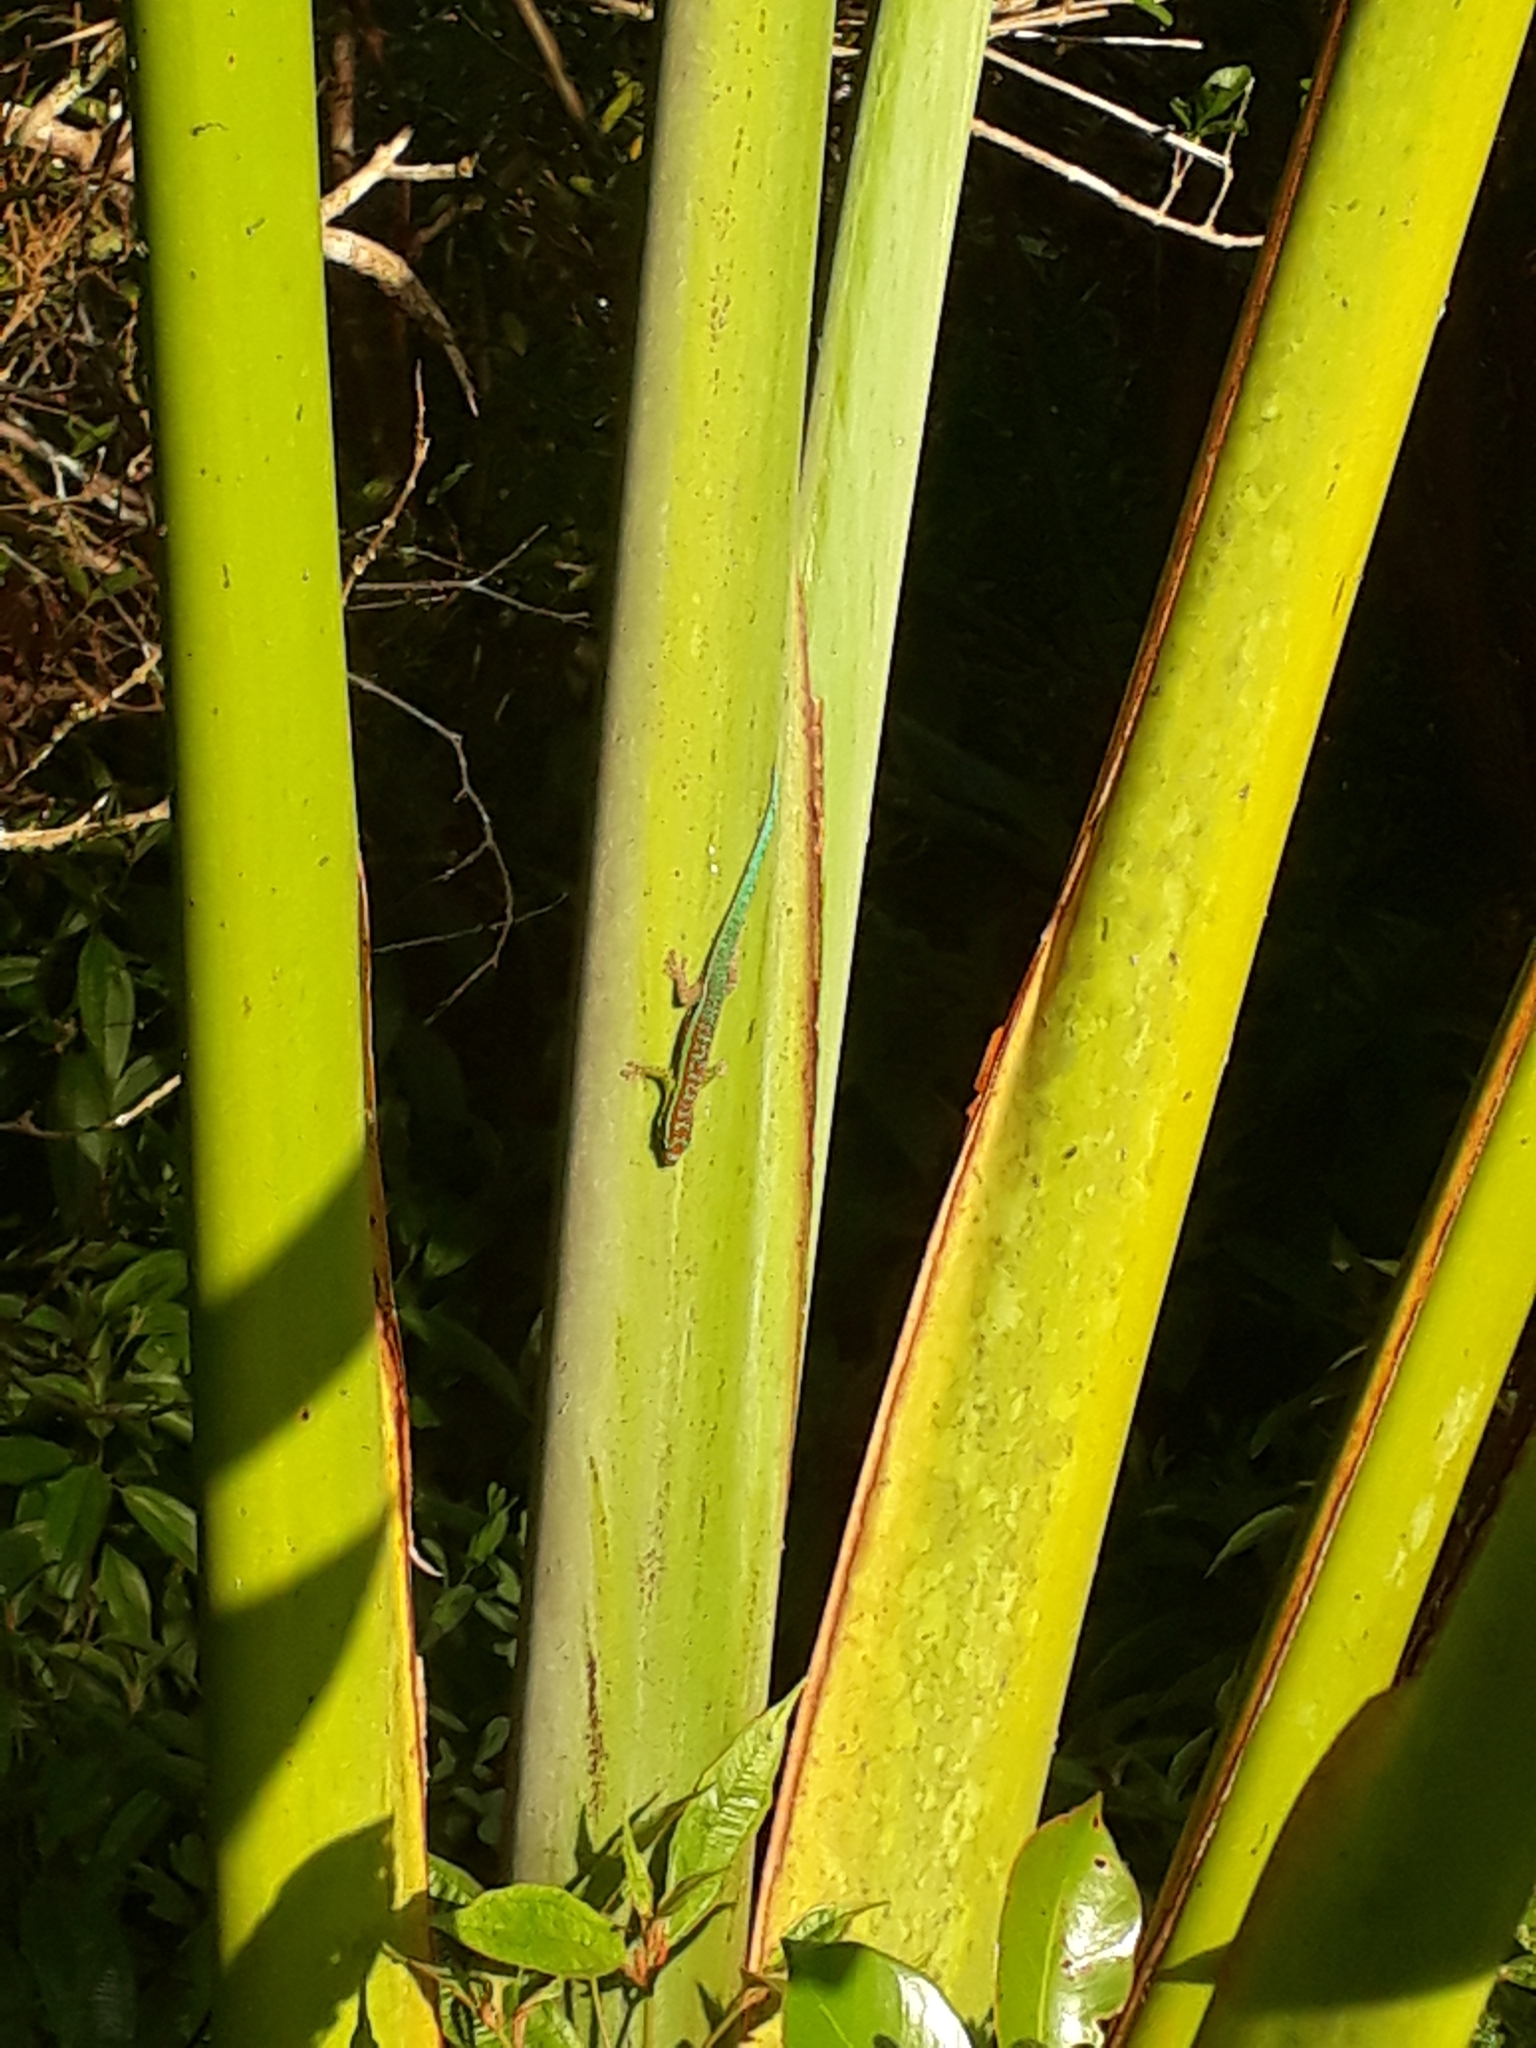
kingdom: Animalia
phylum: Chordata
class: Squamata
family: Gekkonidae
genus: Phelsuma
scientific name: Phelsuma cepediana
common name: Bluetail day gecko
